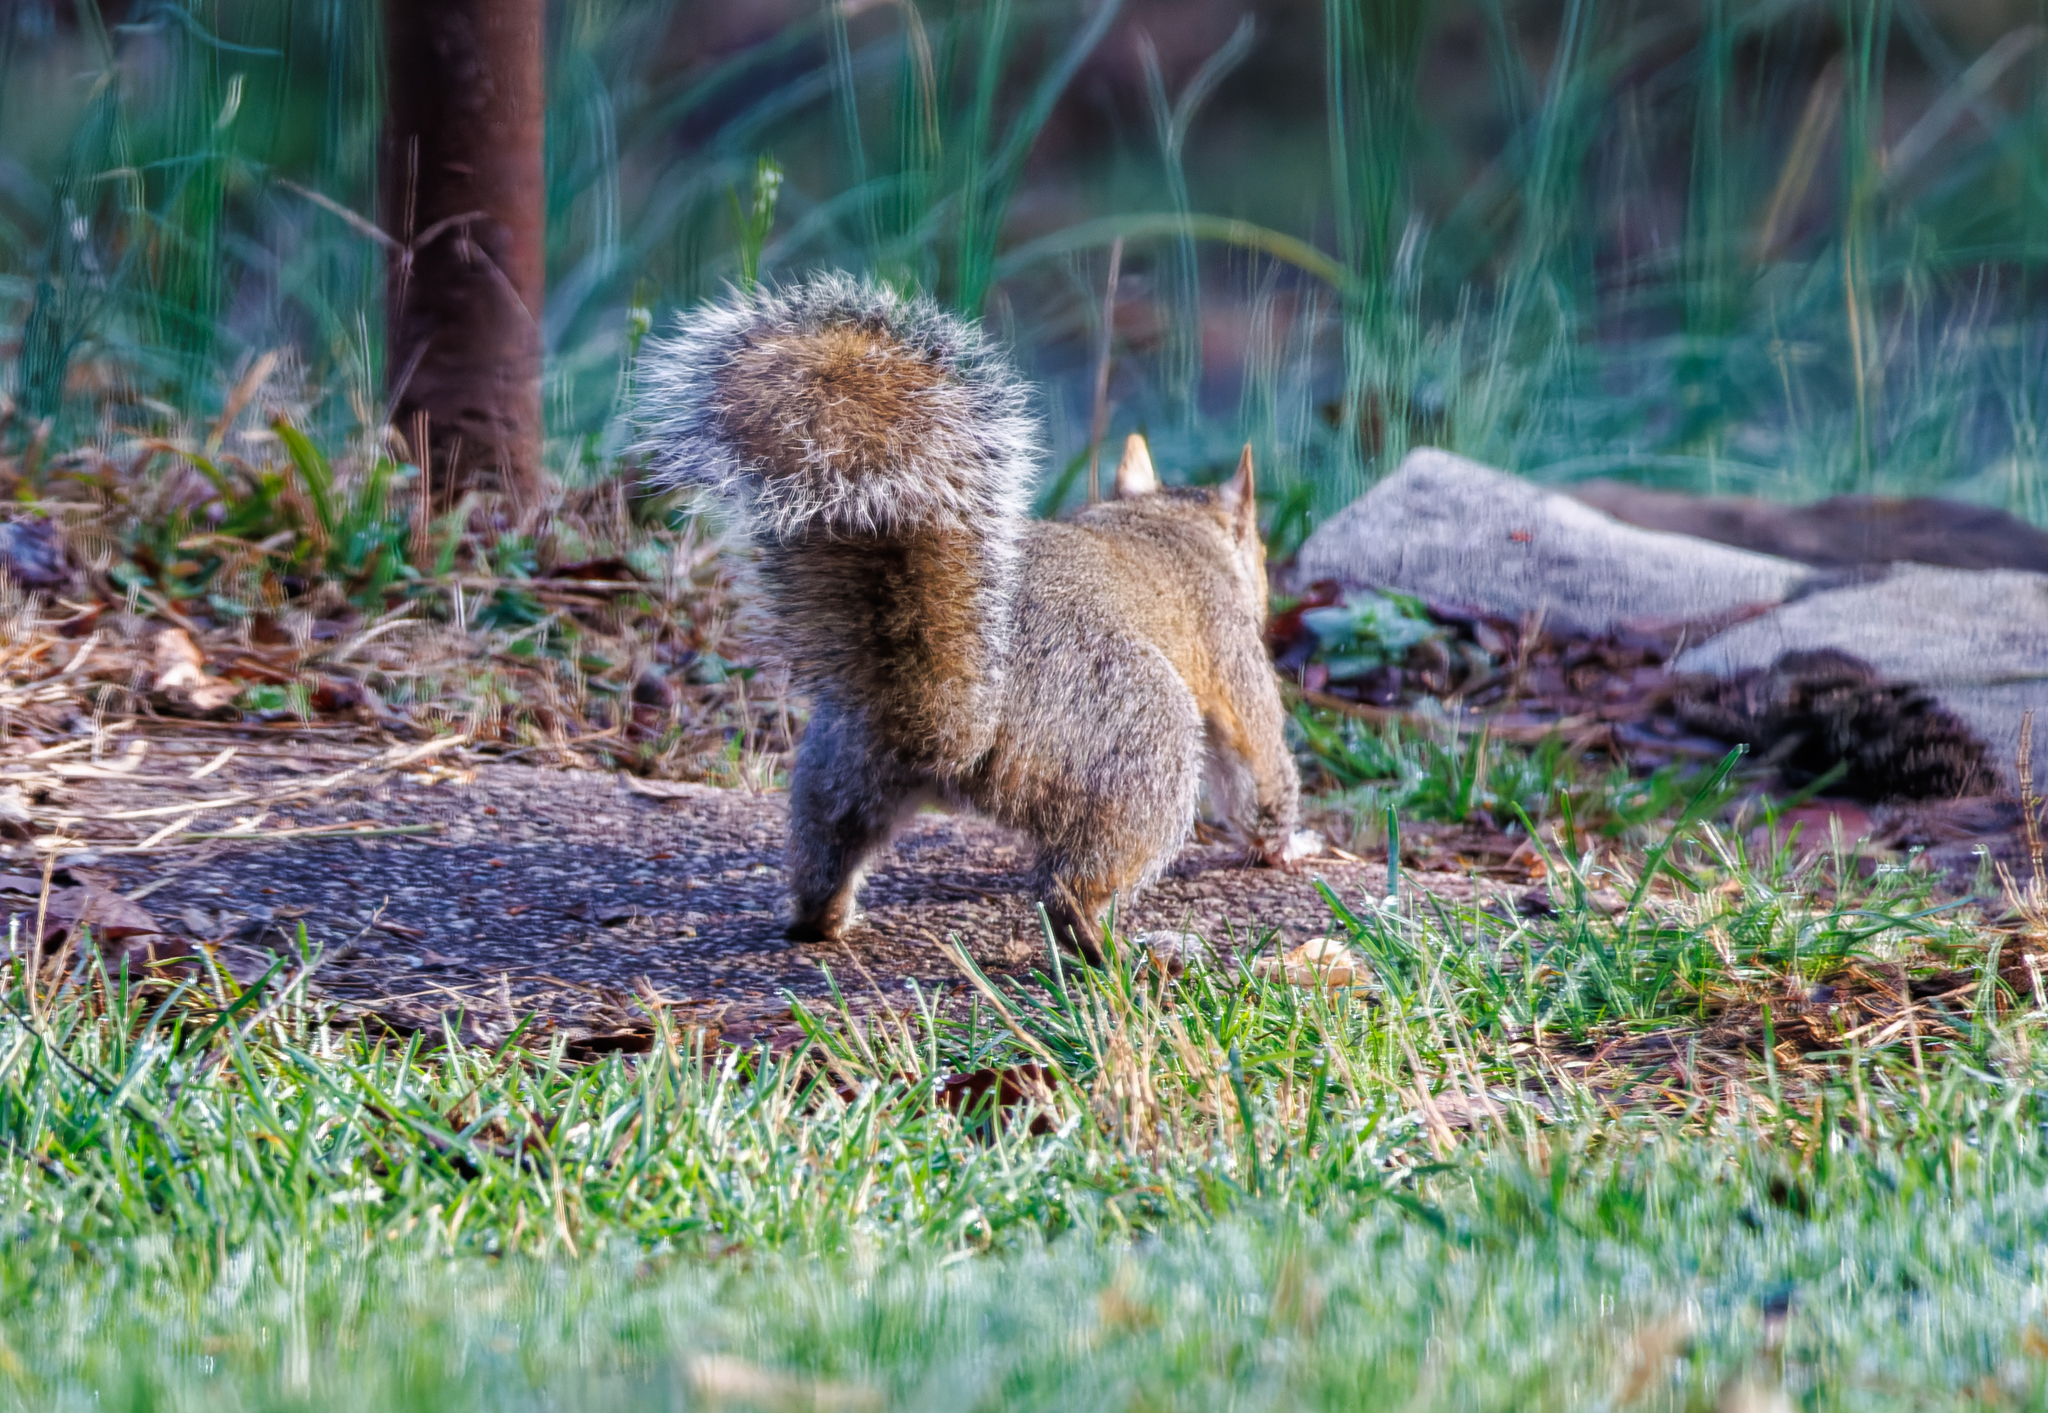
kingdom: Animalia
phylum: Chordata
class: Mammalia
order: Rodentia
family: Sciuridae
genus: Sciurus
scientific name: Sciurus carolinensis
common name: Eastern gray squirrel
